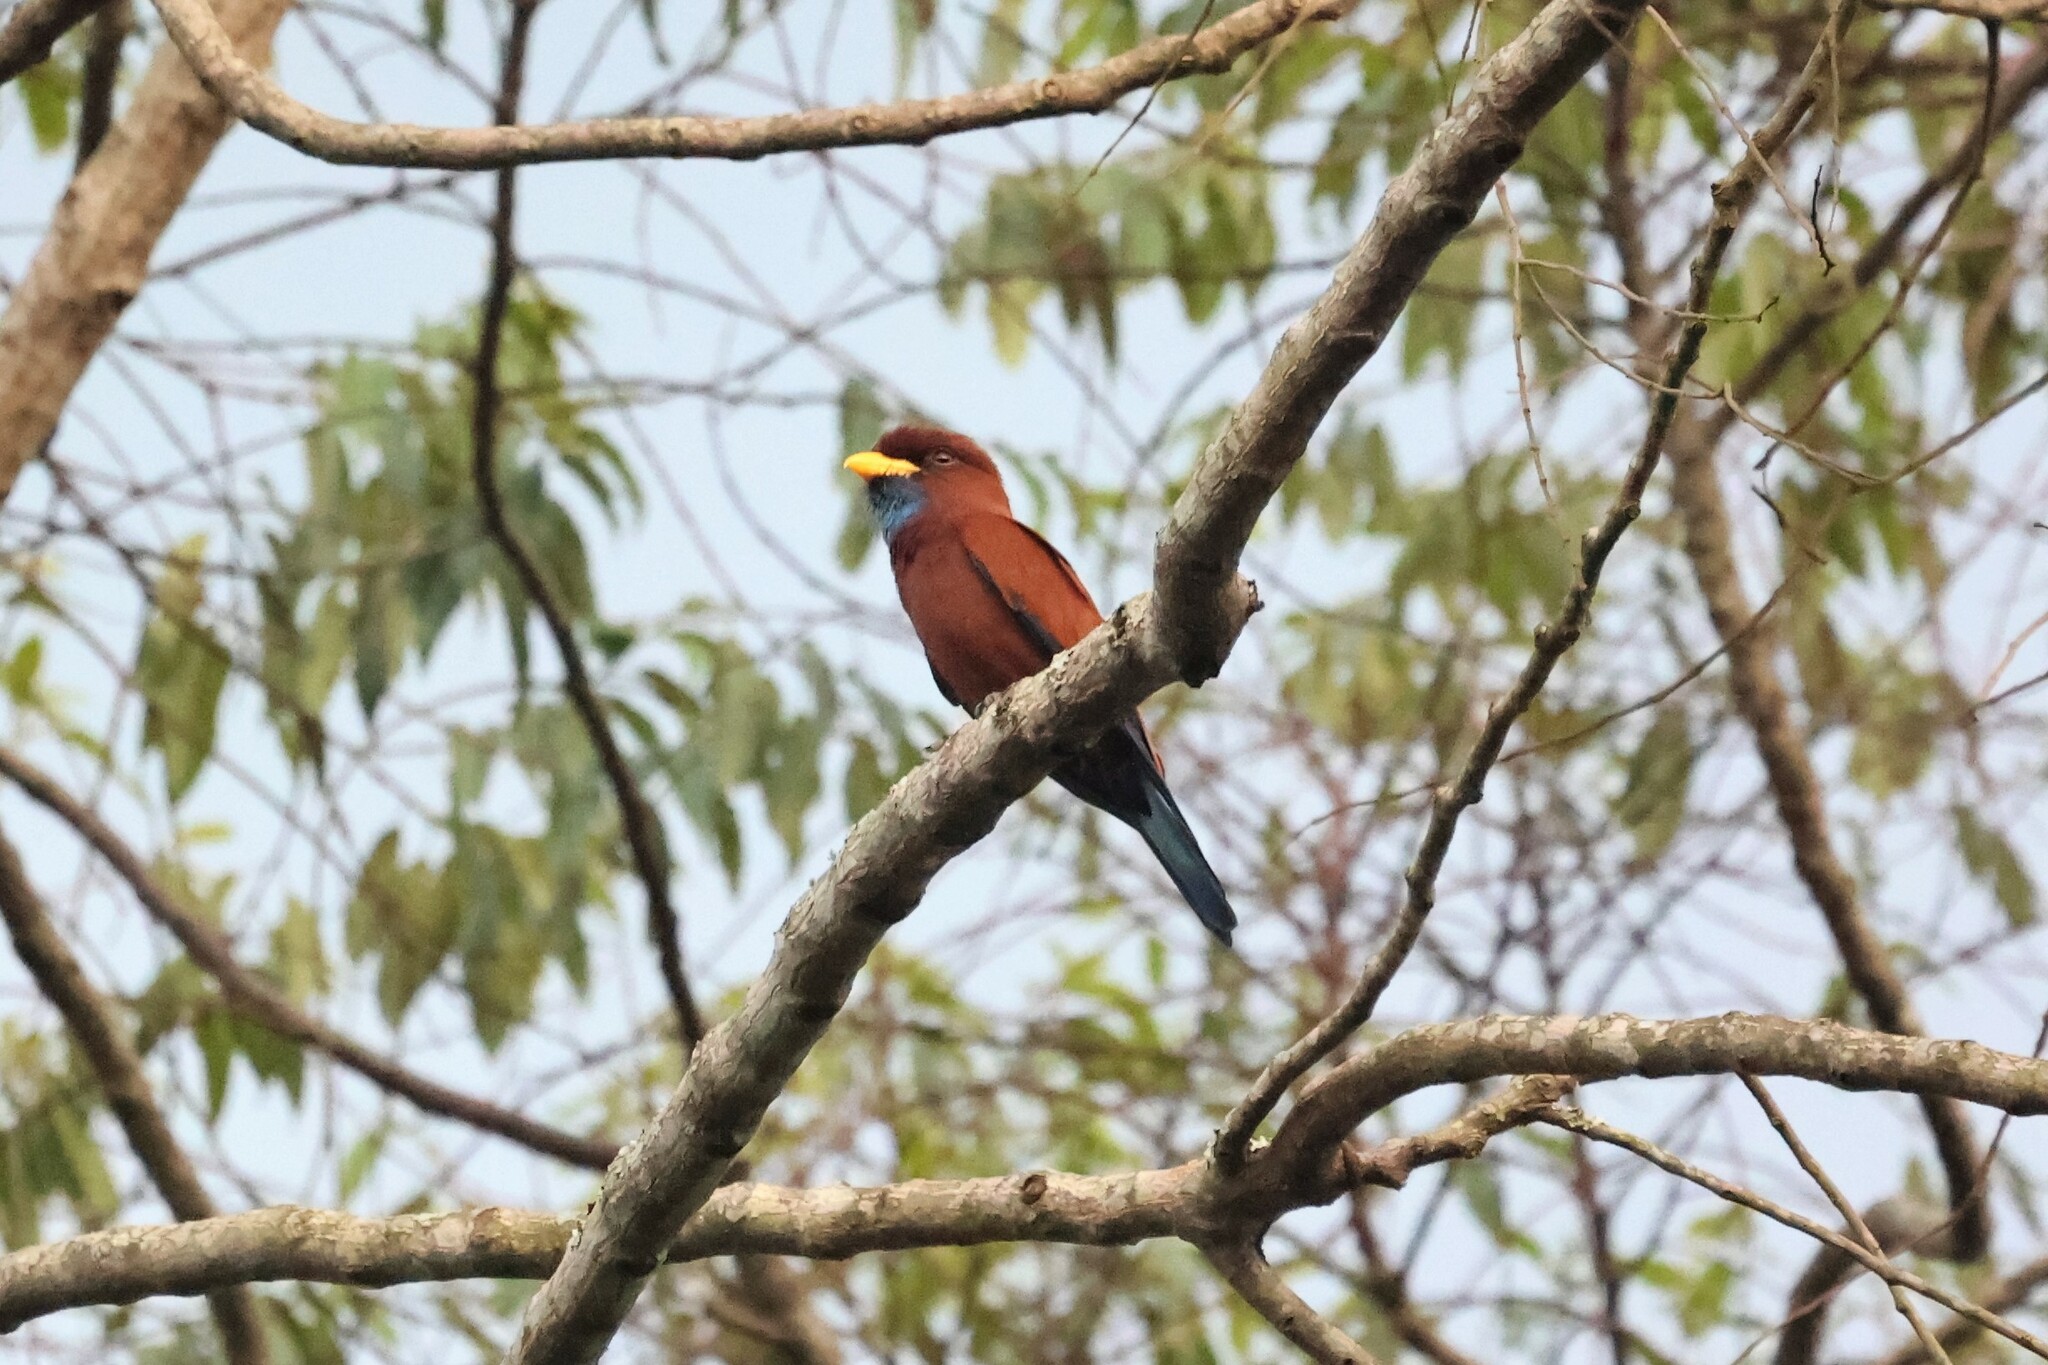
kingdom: Animalia
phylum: Chordata
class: Aves
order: Coraciiformes
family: Coraciidae
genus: Eurystomus
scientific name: Eurystomus gularis
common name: Blue-throated roller
